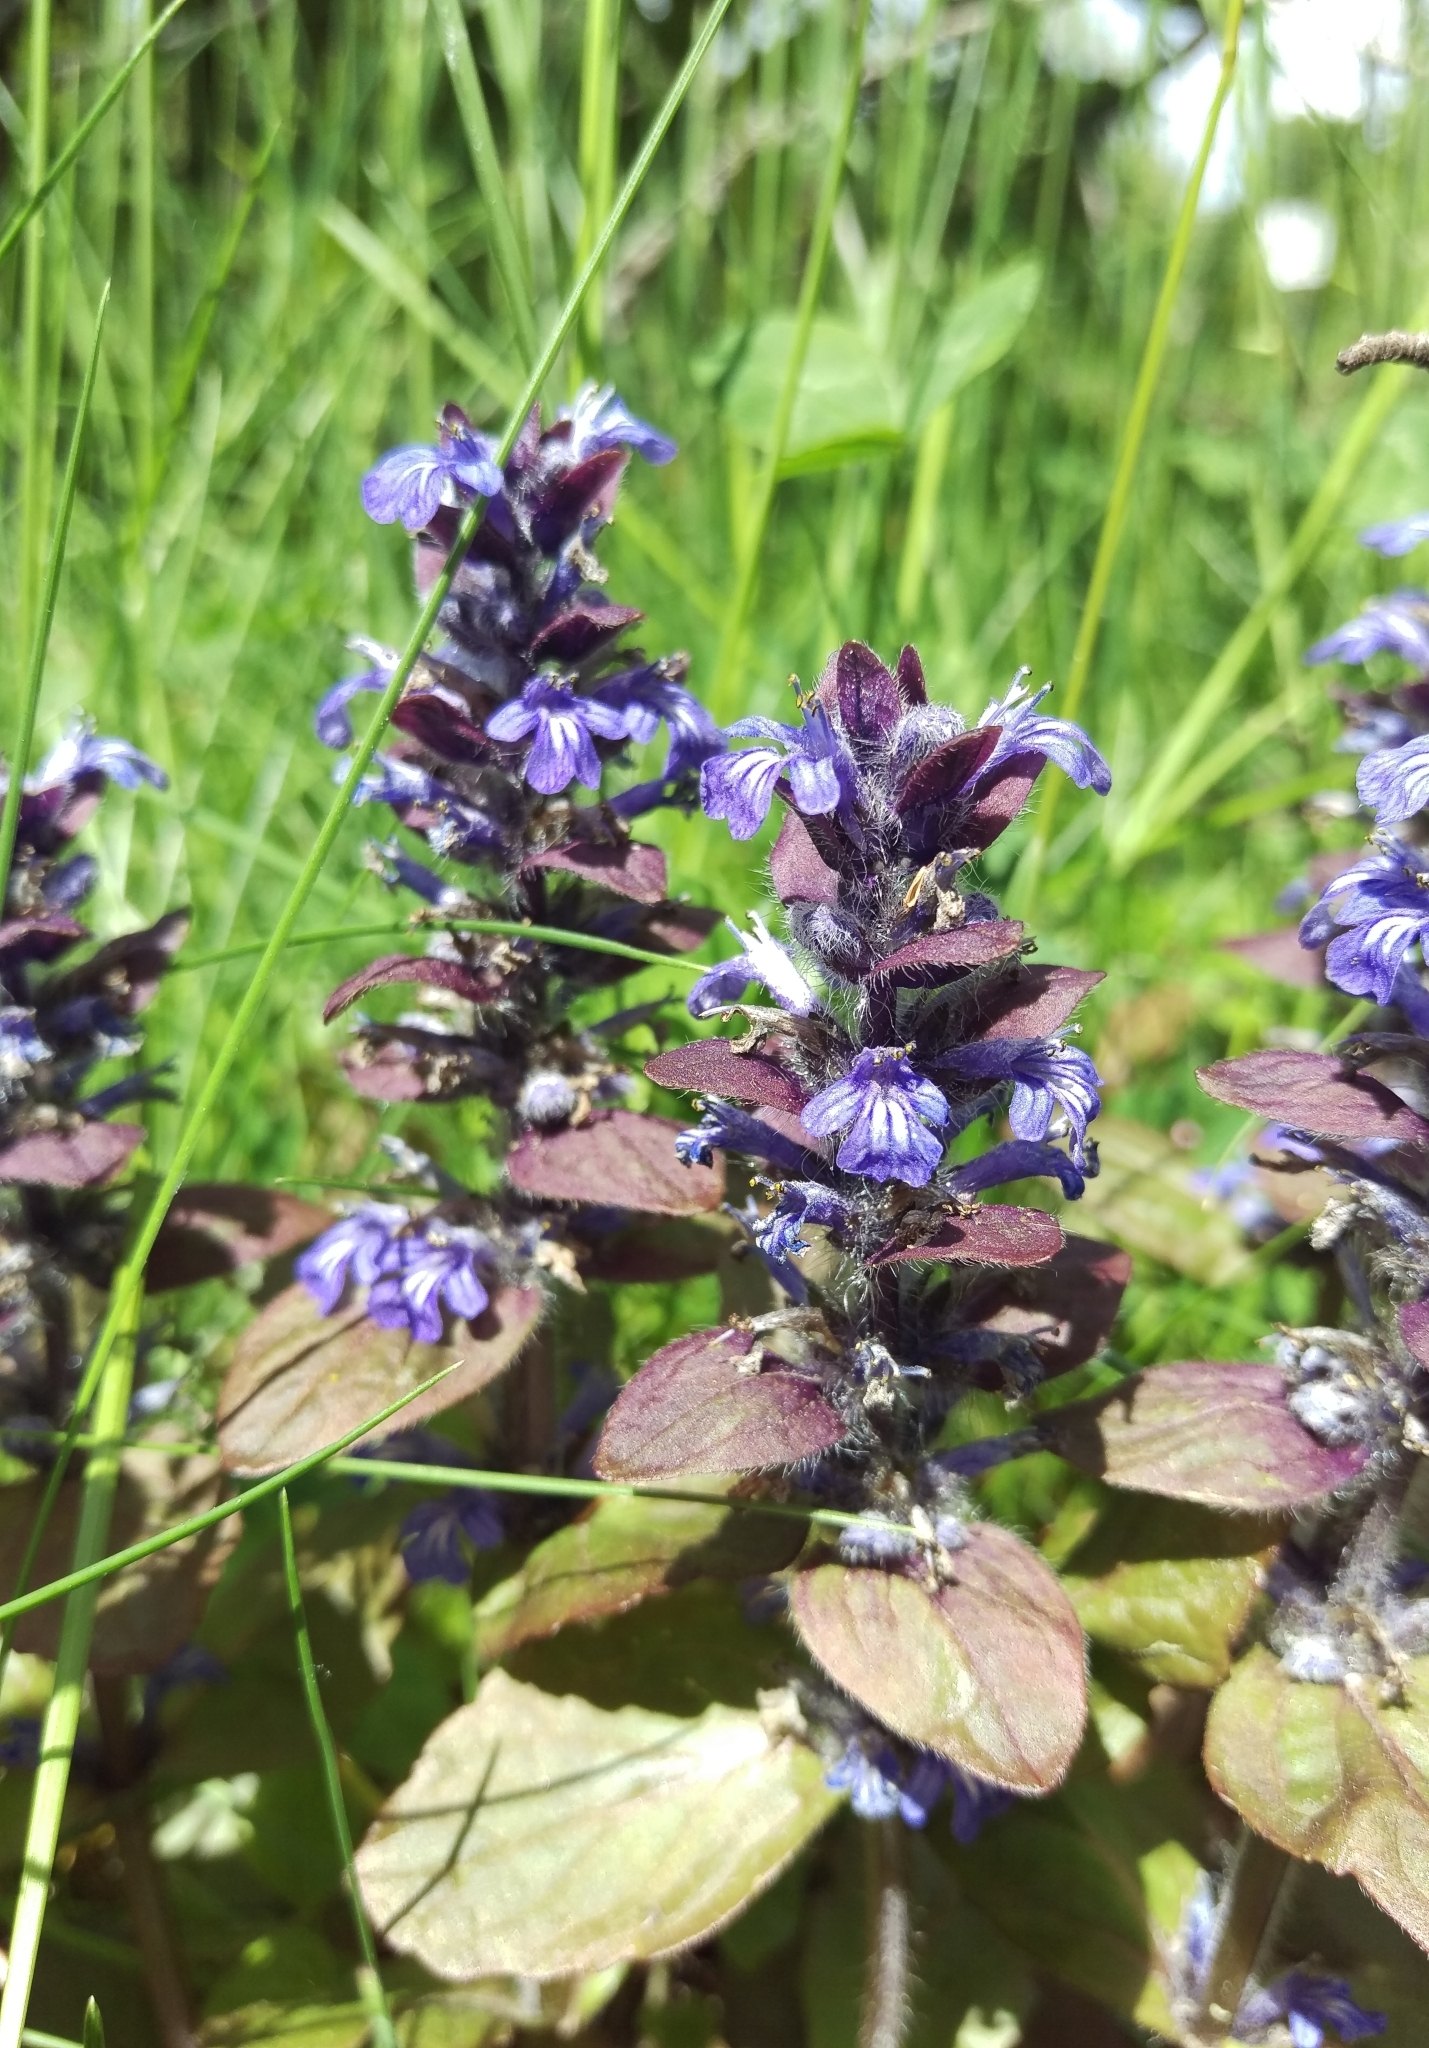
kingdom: Plantae
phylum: Tracheophyta
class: Magnoliopsida
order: Lamiales
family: Lamiaceae
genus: Ajuga
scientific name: Ajuga reptans
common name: Bugle
